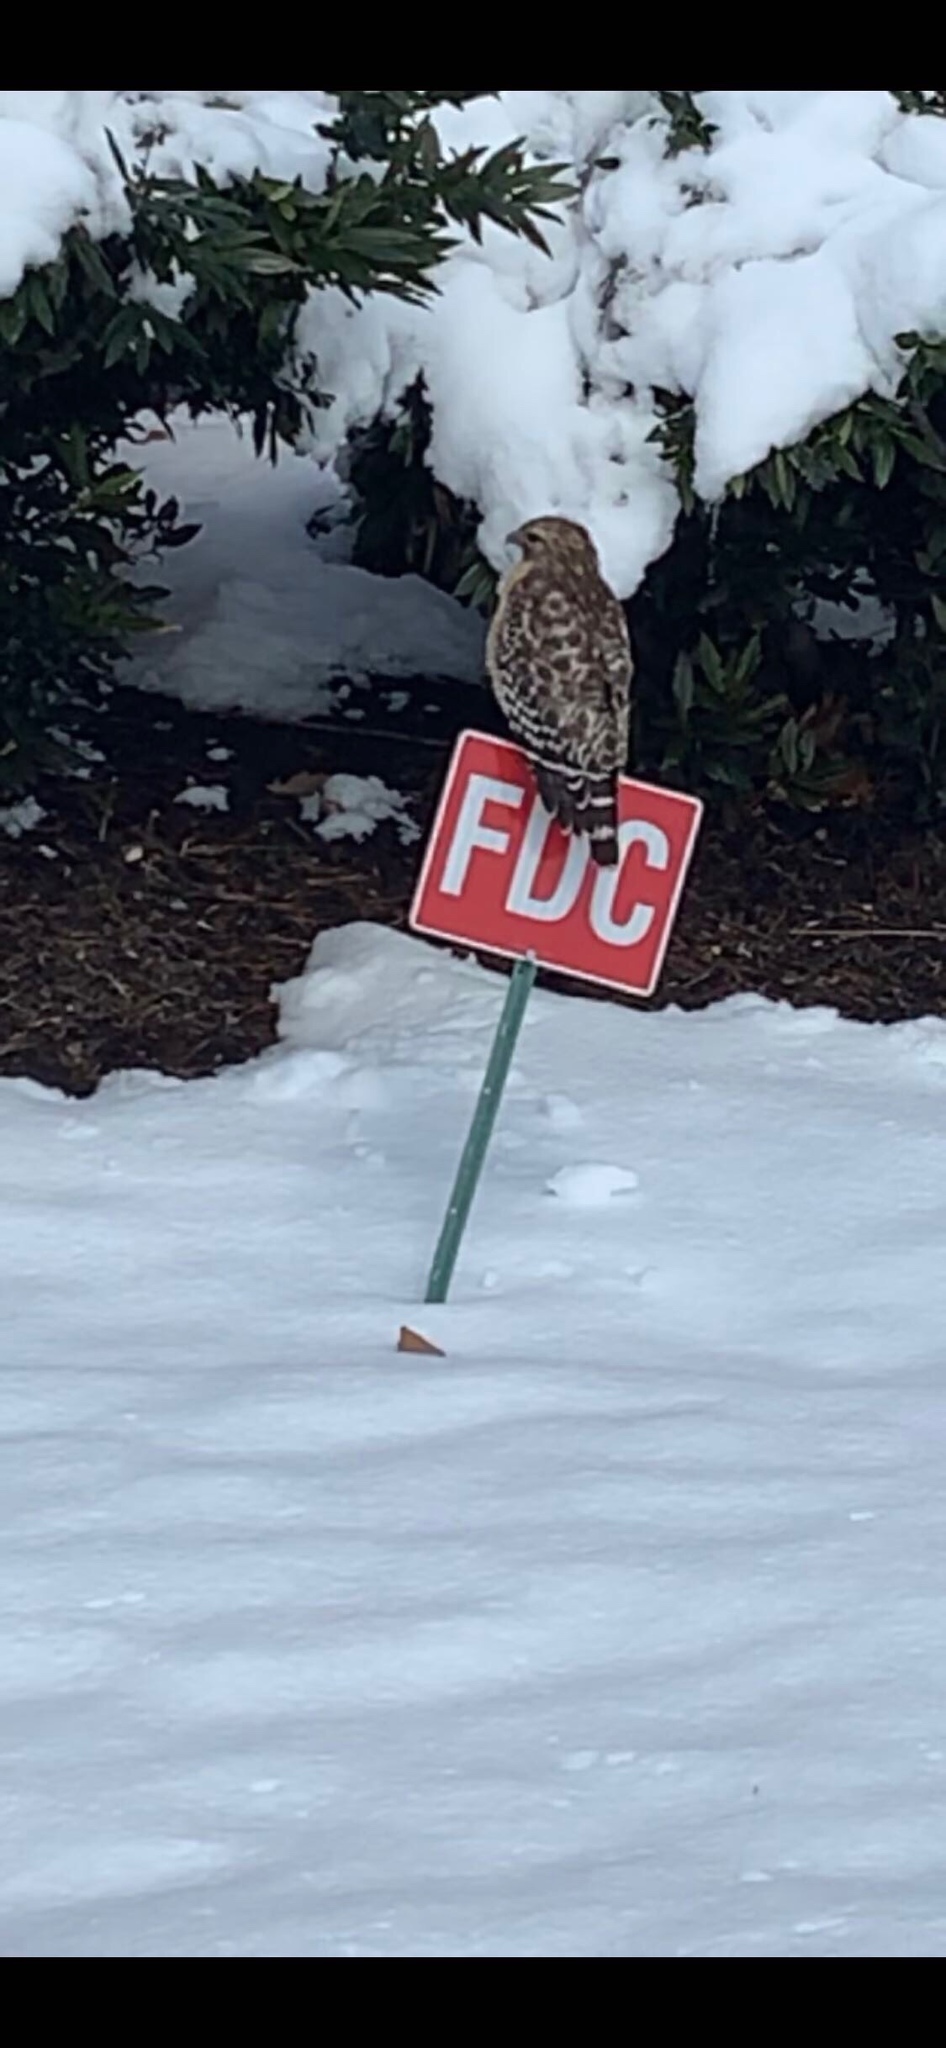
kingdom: Animalia
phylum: Chordata
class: Aves
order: Accipitriformes
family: Accipitridae
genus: Buteo
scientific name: Buteo lineatus
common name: Red-shouldered hawk
